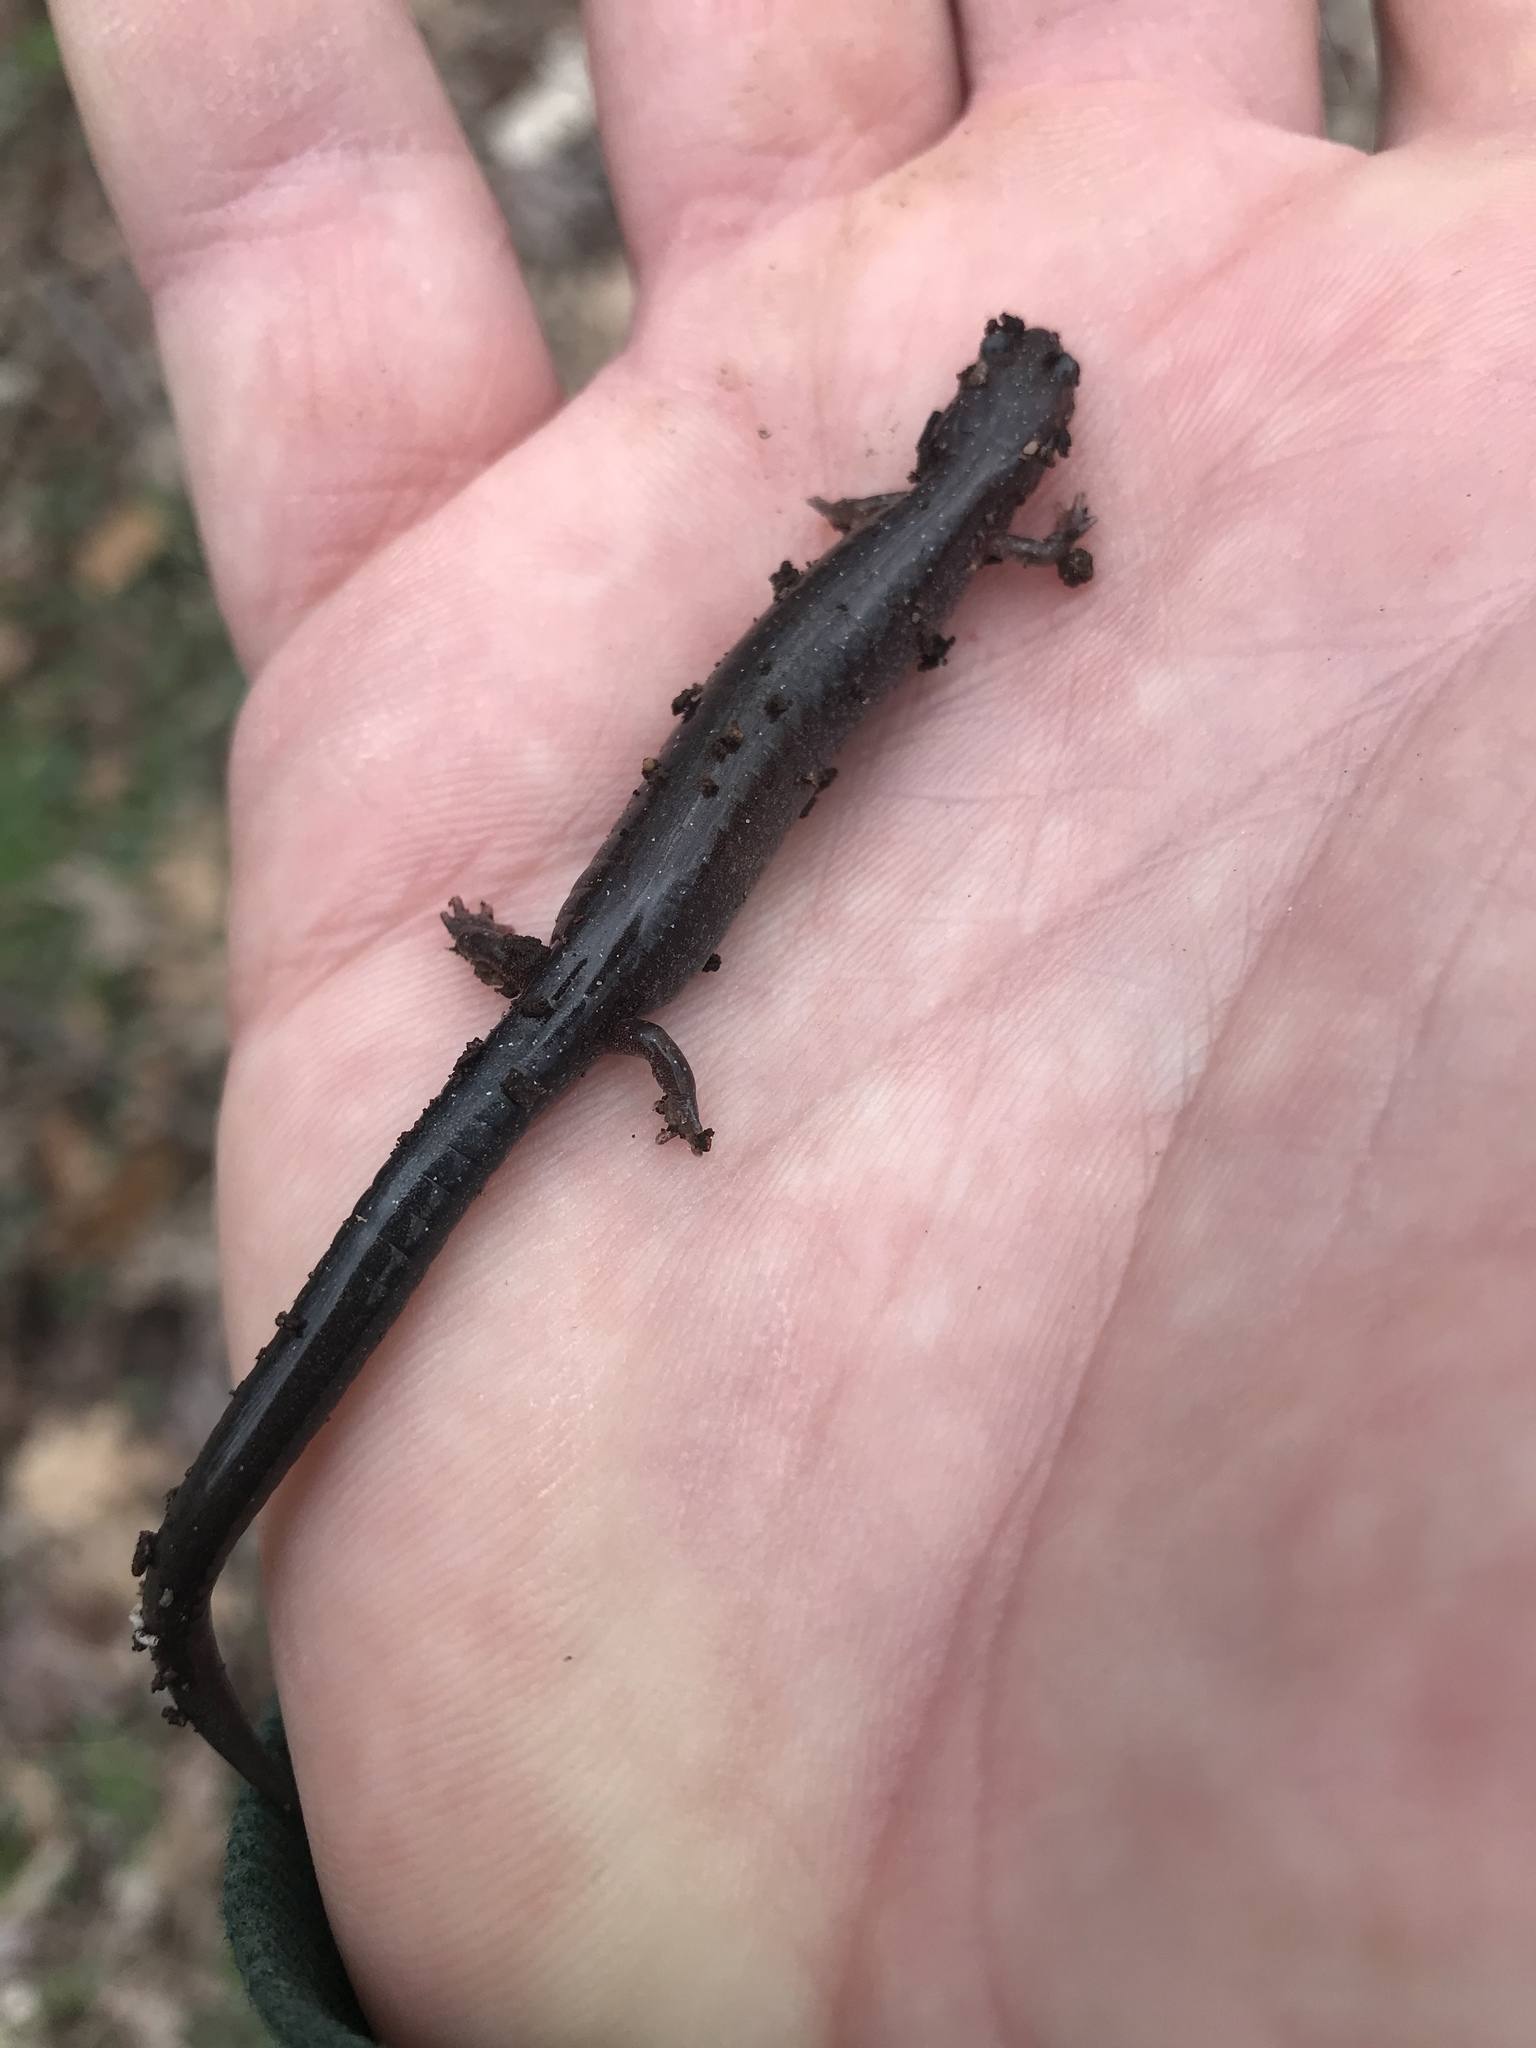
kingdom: Animalia
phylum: Chordata
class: Amphibia
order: Caudata
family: Plethodontidae
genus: Plethodon
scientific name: Plethodon cinereus
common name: Redback salamander
